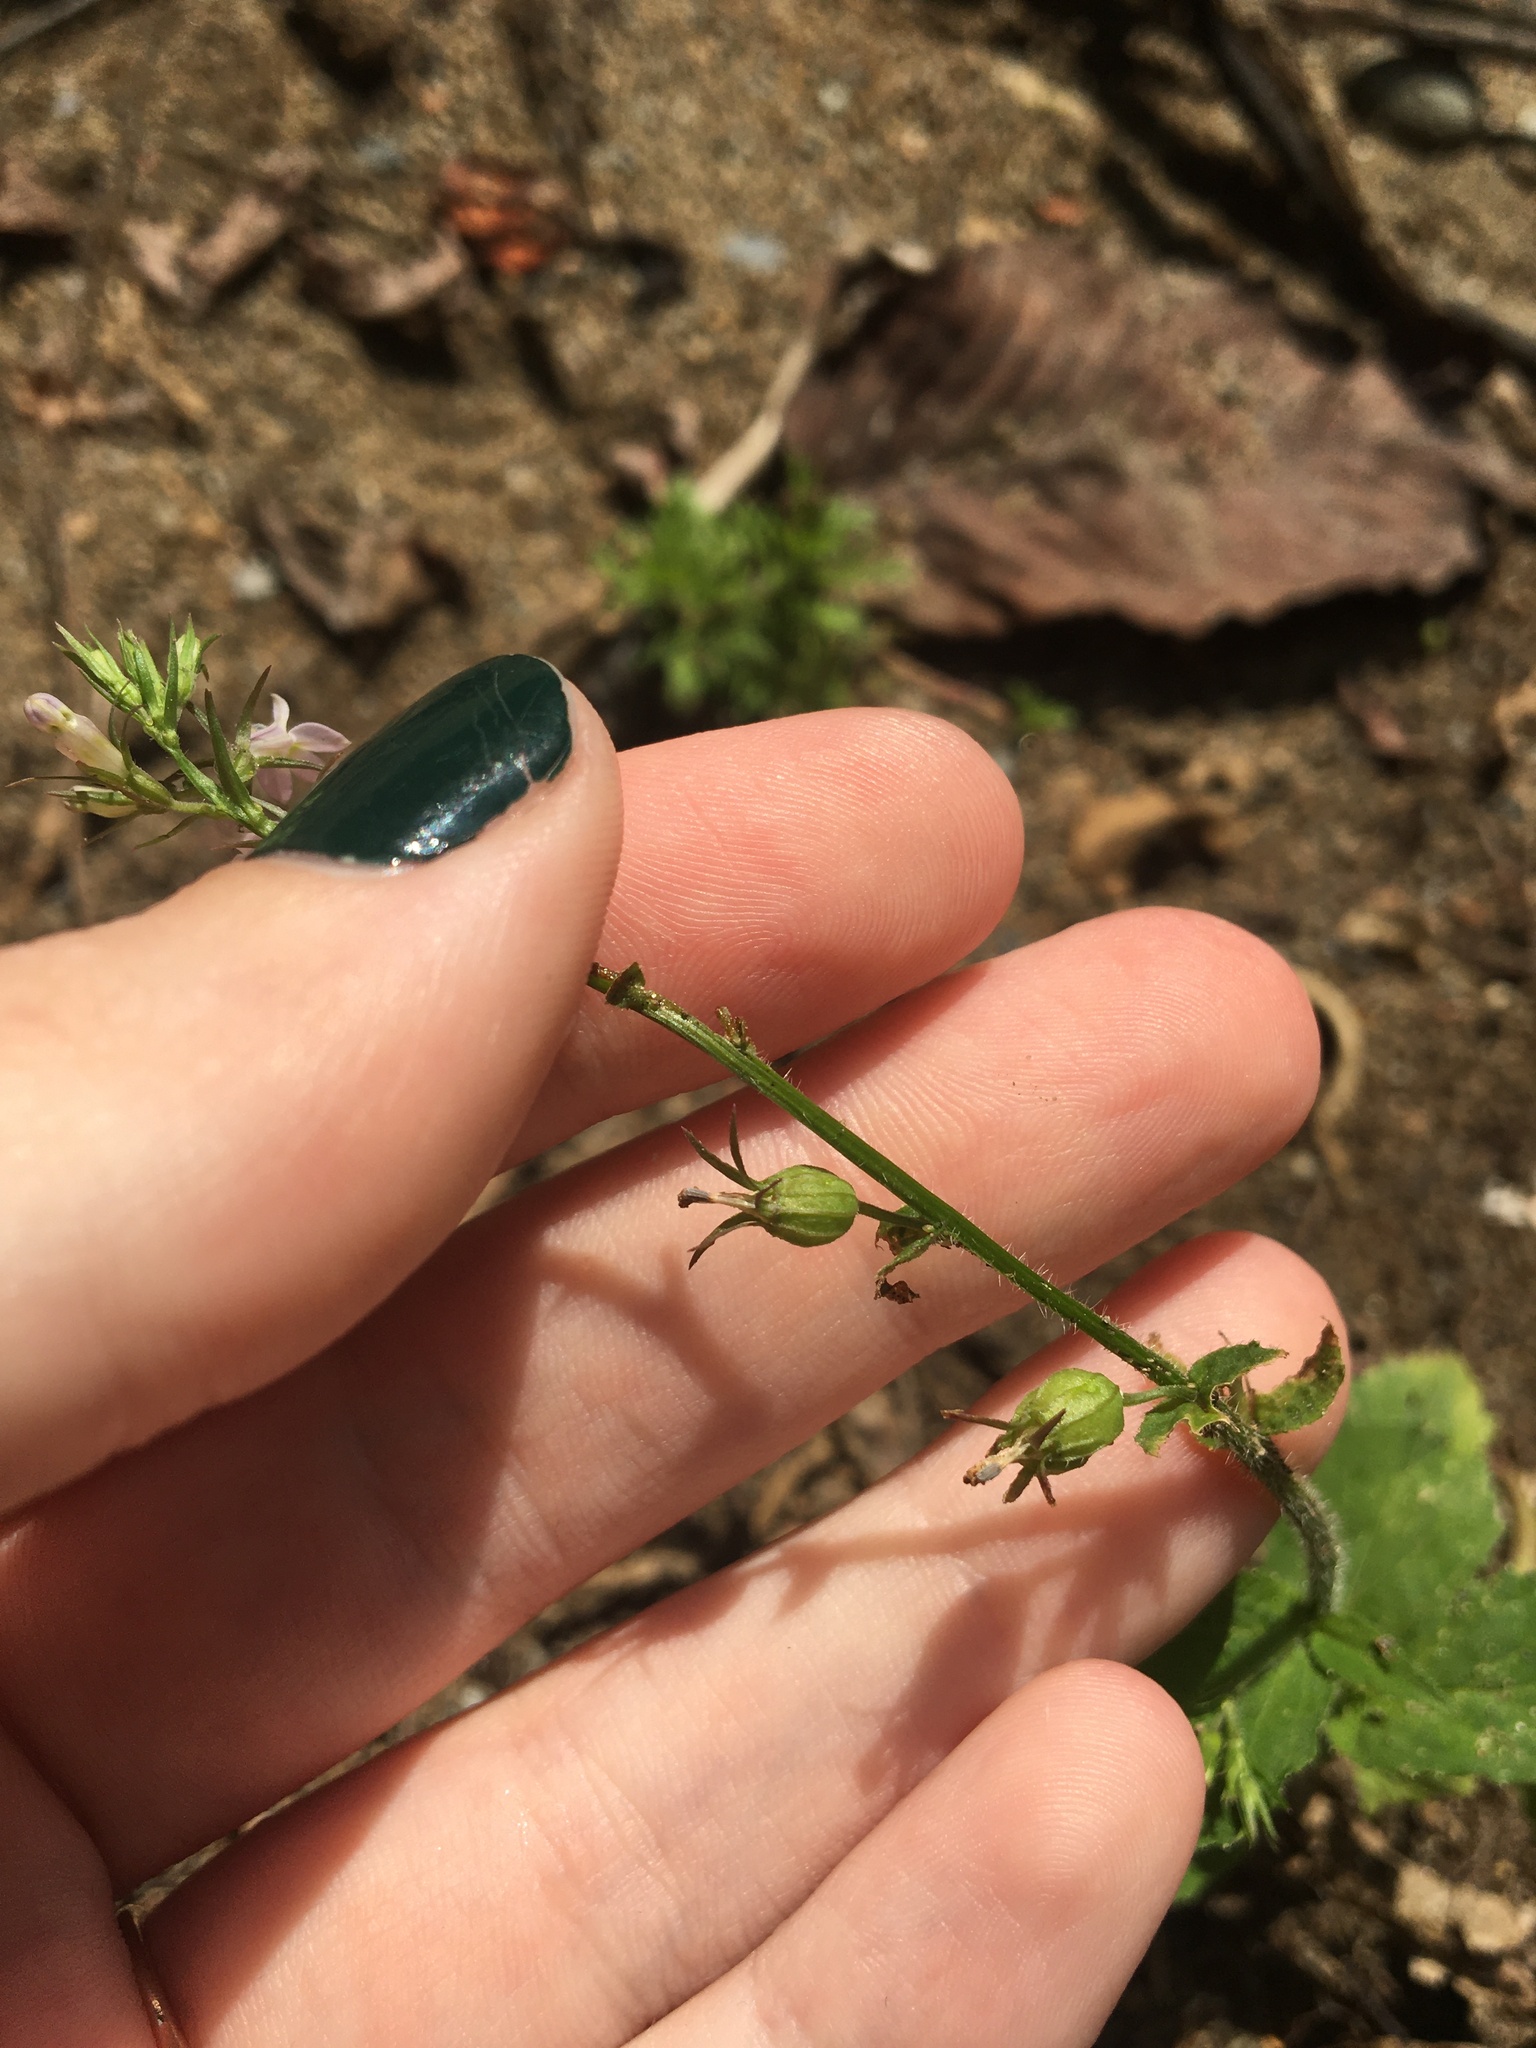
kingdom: Plantae
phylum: Tracheophyta
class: Magnoliopsida
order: Asterales
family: Campanulaceae
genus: Lobelia
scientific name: Lobelia inflata
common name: Indian tobacco
